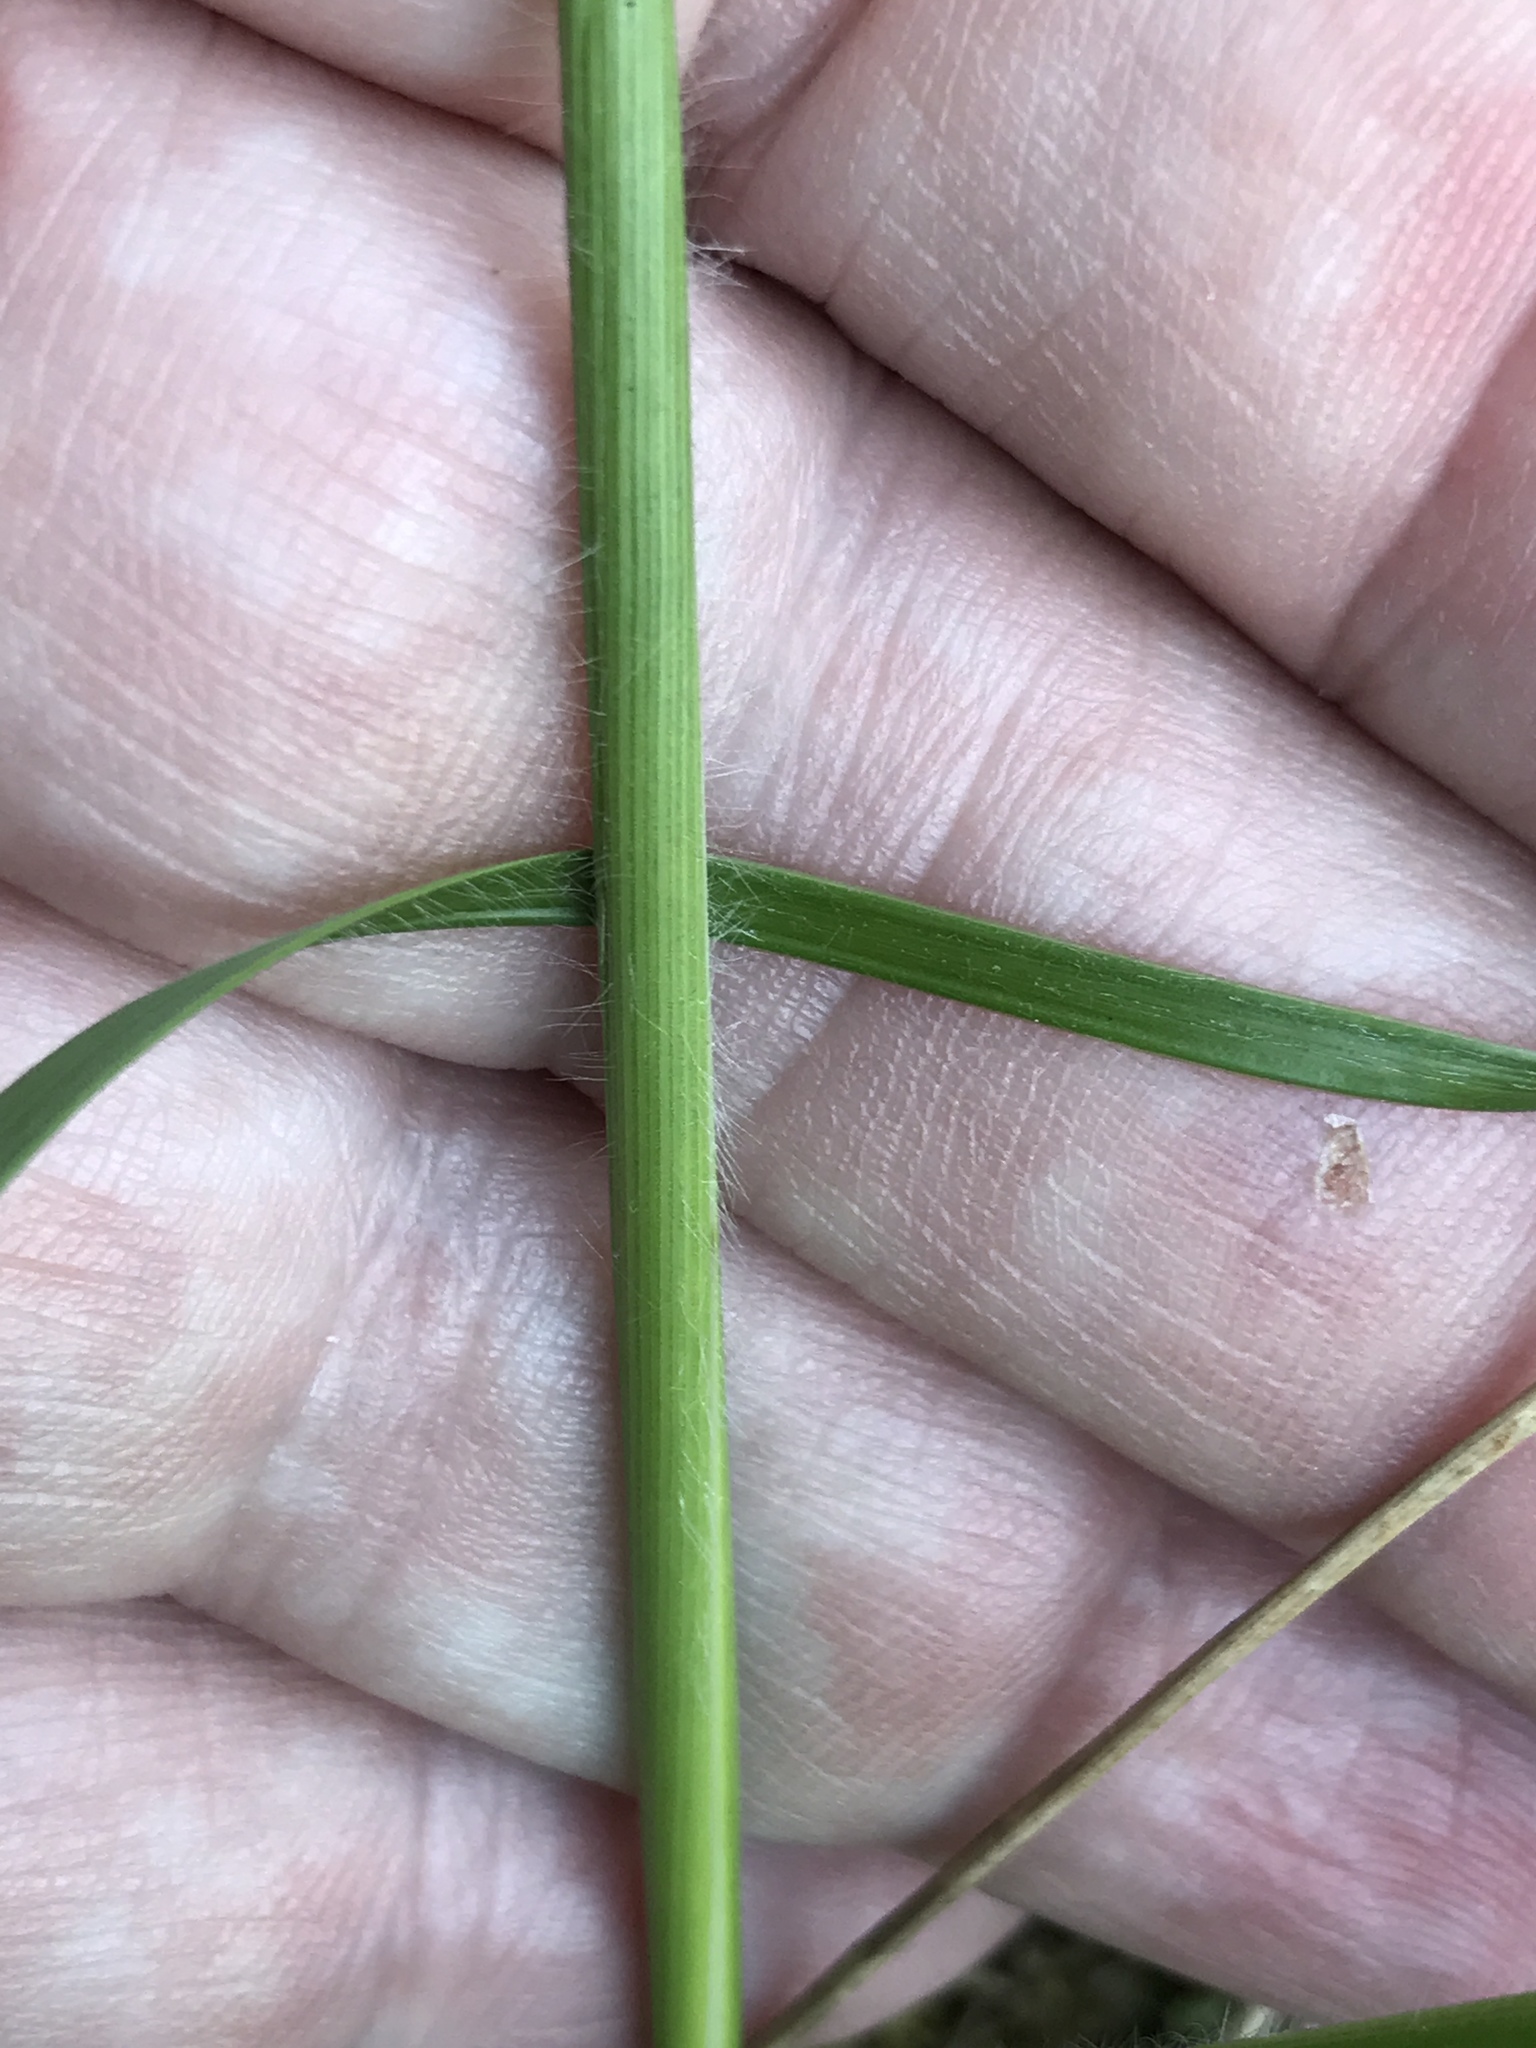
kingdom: Plantae
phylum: Tracheophyta
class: Liliopsida
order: Poales
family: Poaceae
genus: Danthonia
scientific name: Danthonia sericea
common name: Downy danthonia
